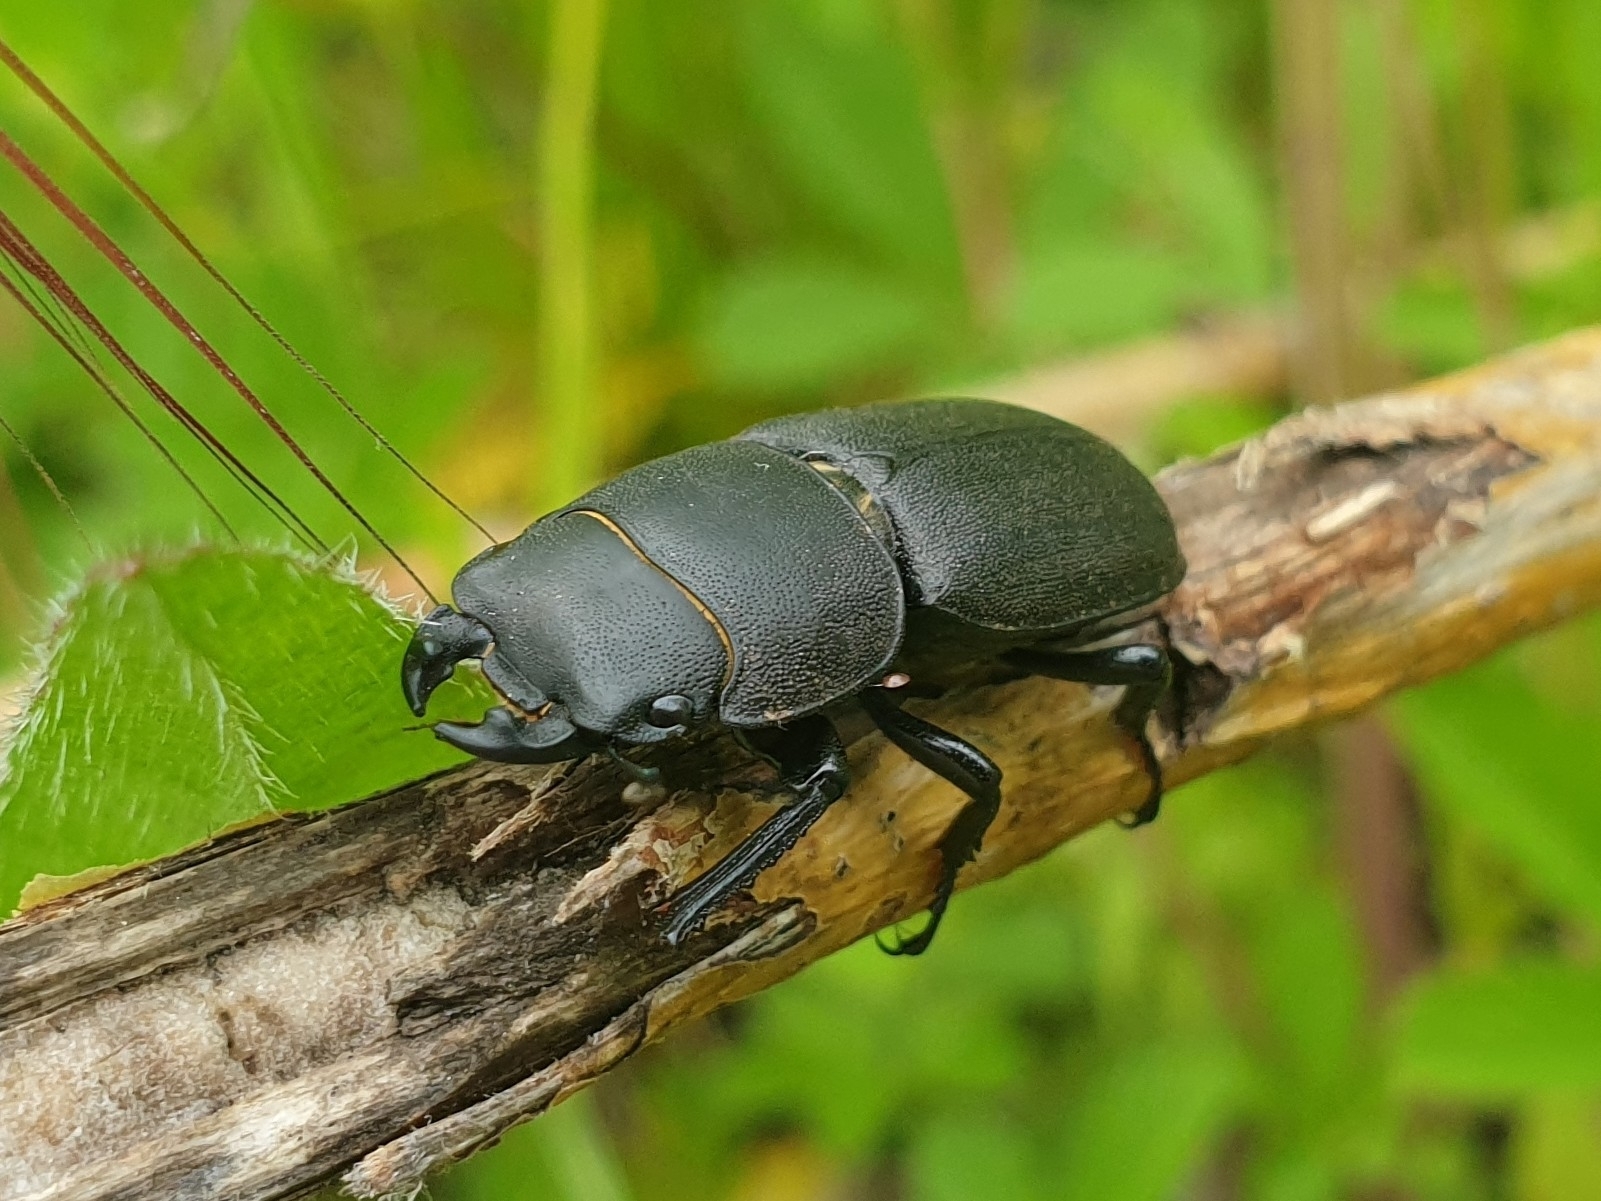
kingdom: Animalia
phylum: Arthropoda
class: Insecta
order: Coleoptera
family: Lucanidae
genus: Dorcus
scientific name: Dorcus parallelipipedus
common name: Lesser stag beetle
